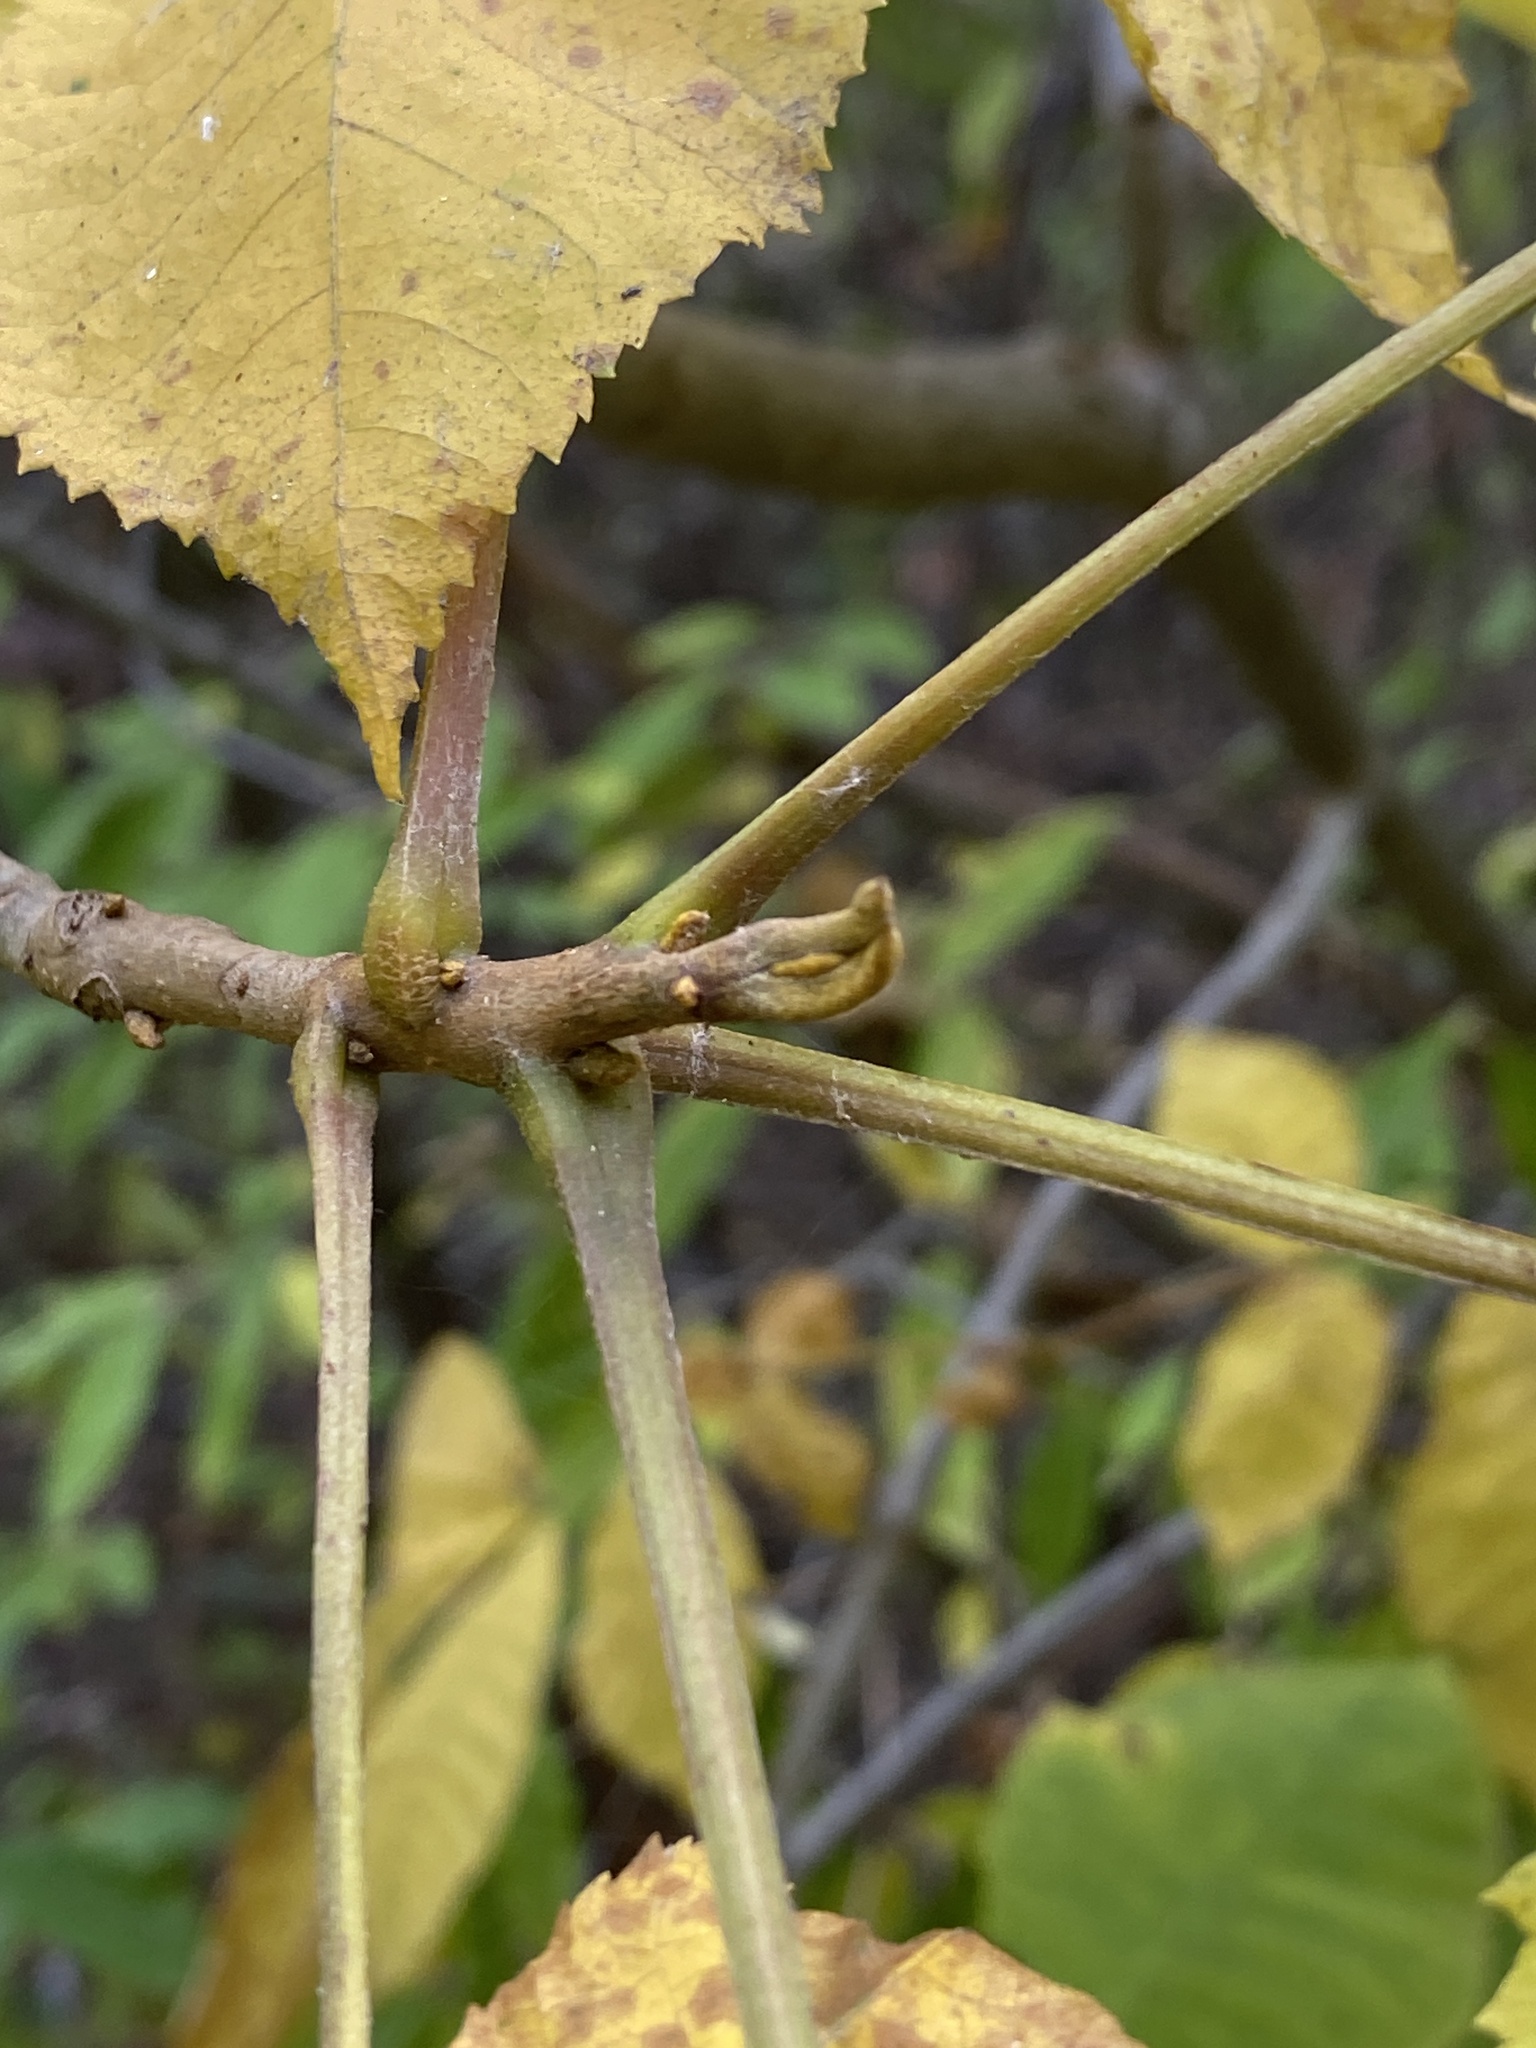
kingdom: Plantae
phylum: Tracheophyta
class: Magnoliopsida
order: Fagales
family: Juglandaceae
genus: Carya
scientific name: Carya cordiformis
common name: Bitternut hickory
